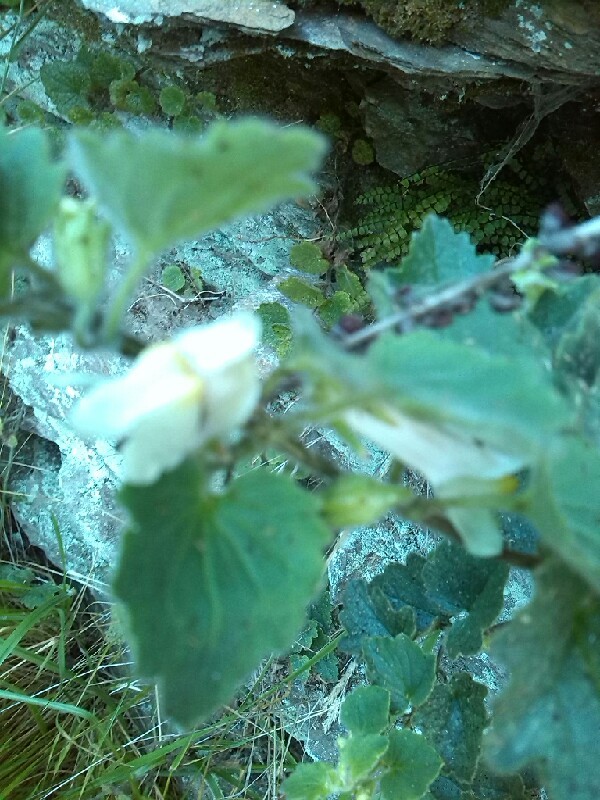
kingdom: Plantae
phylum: Tracheophyta
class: Magnoliopsida
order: Lamiales
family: Plantaginaceae
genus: Asarina
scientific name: Asarina procumbens
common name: Trailing snapdragon
